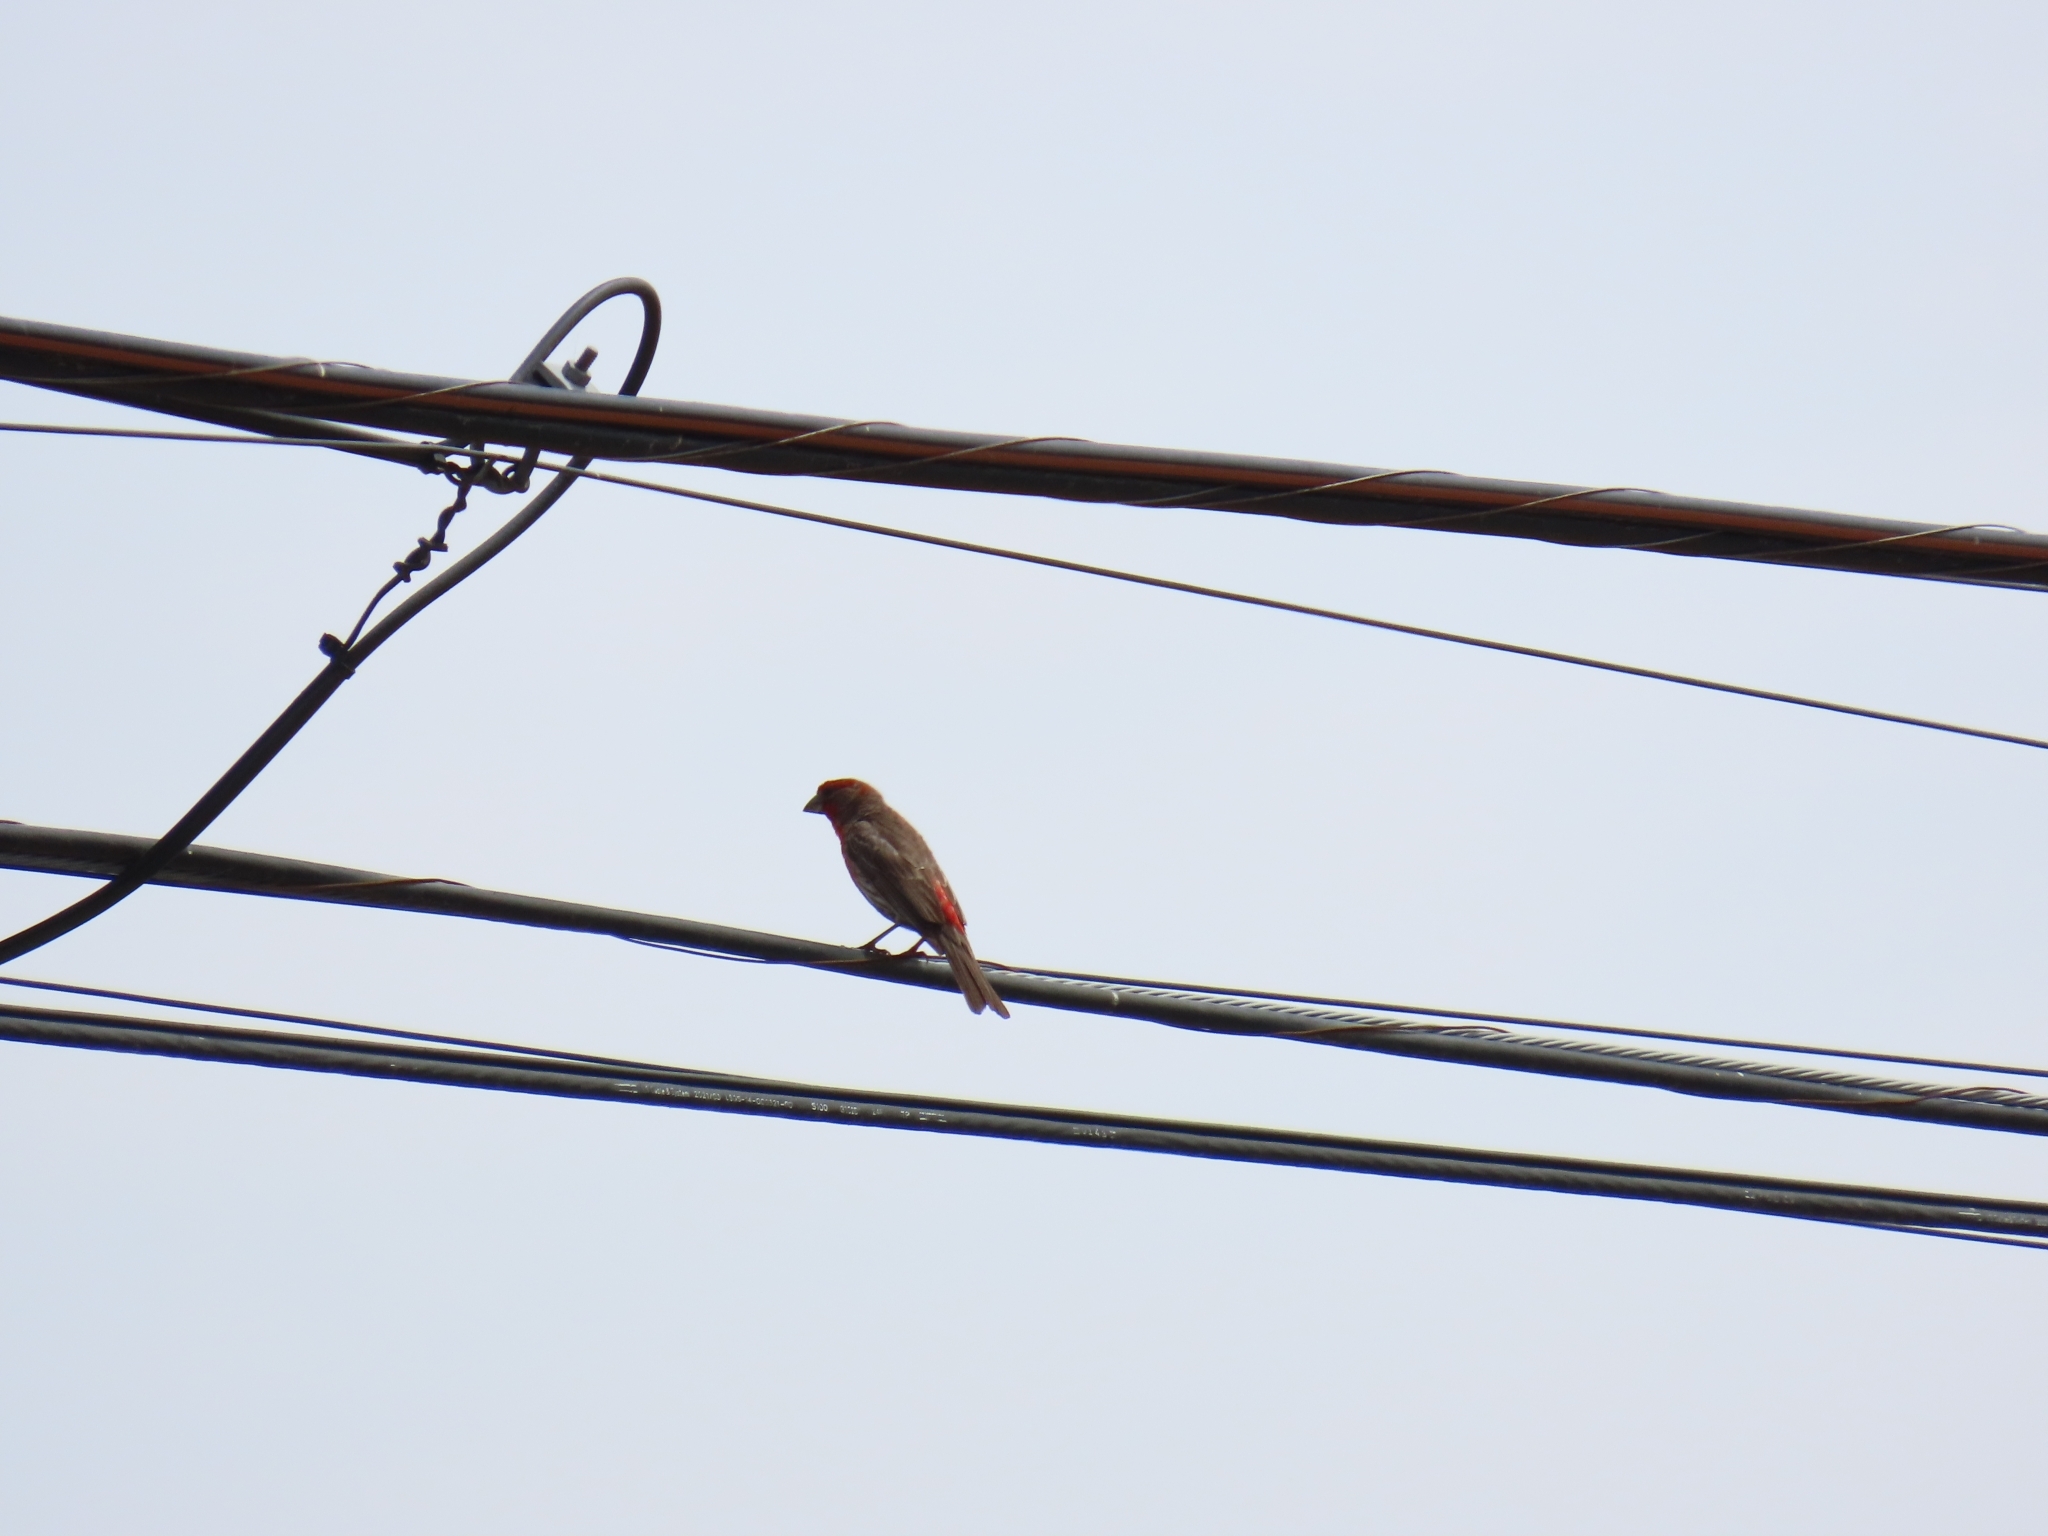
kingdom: Animalia
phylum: Chordata
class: Aves
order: Passeriformes
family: Fringillidae
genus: Haemorhous
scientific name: Haemorhous mexicanus
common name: House finch
